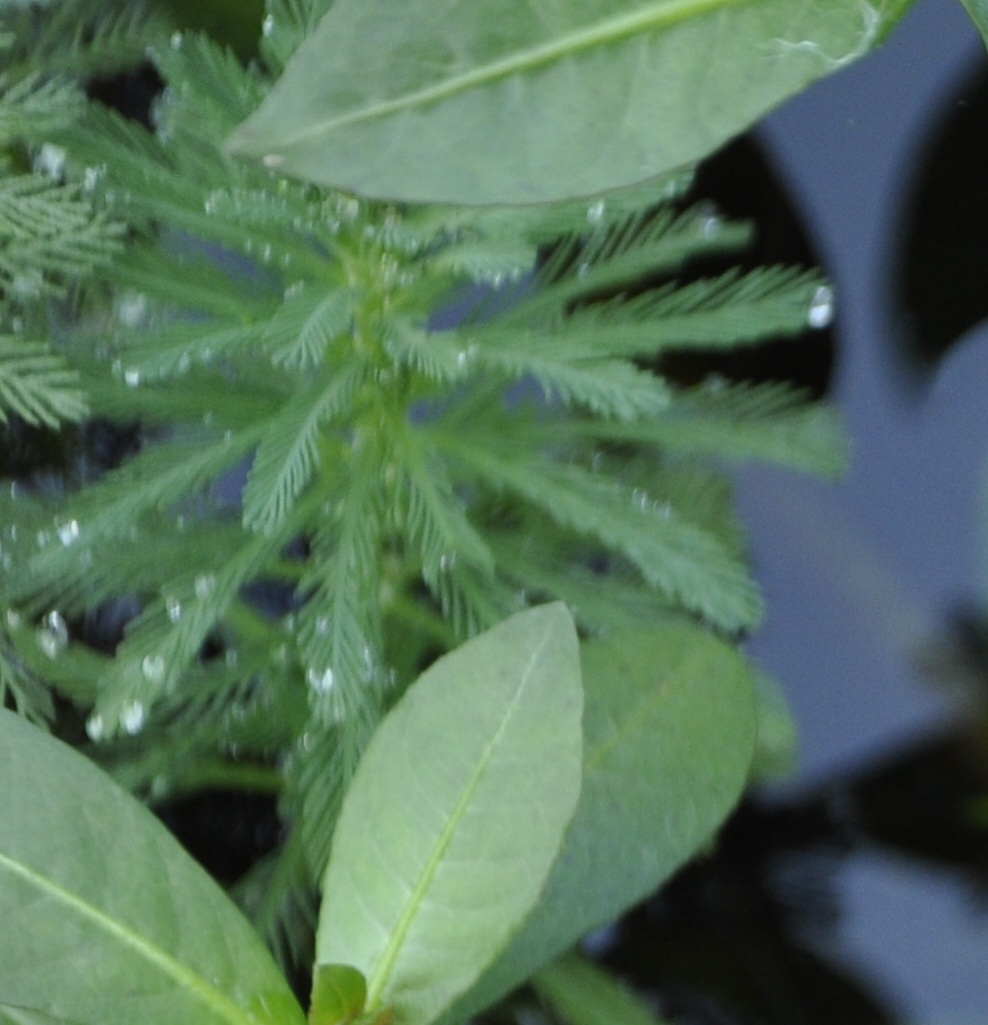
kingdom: Plantae
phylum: Tracheophyta
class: Magnoliopsida
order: Saxifragales
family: Haloragaceae
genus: Myriophyllum
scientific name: Myriophyllum aquaticum
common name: Parrot's feather
